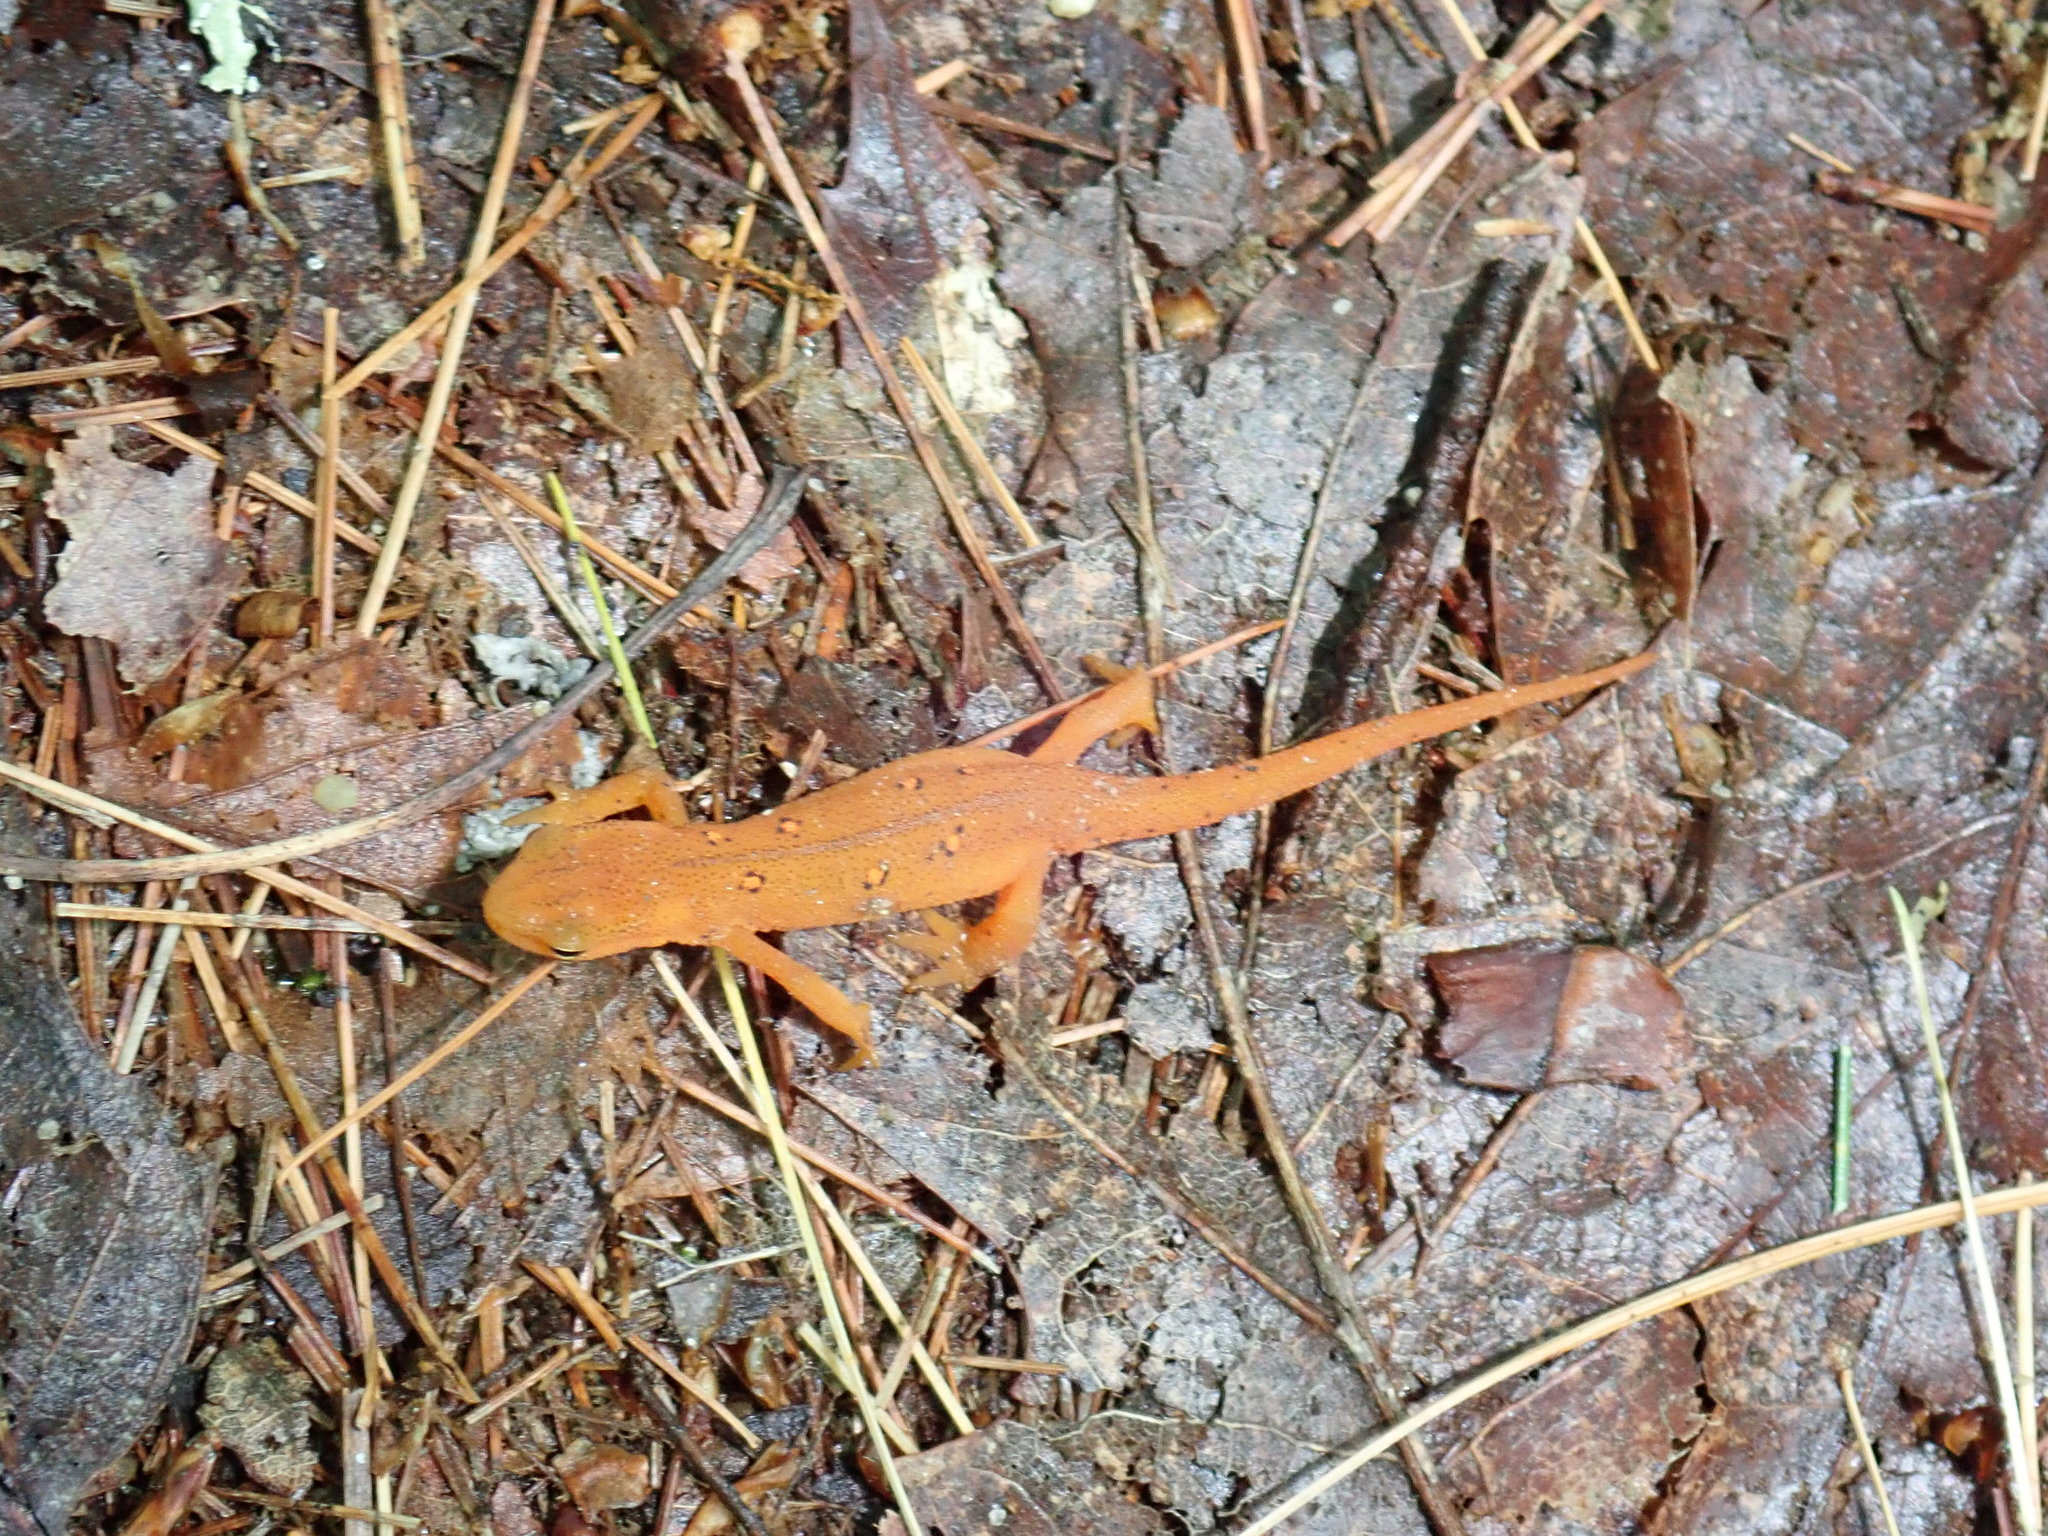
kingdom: Animalia
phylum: Chordata
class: Amphibia
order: Caudata
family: Salamandridae
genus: Notophthalmus
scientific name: Notophthalmus viridescens
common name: Eastern newt
